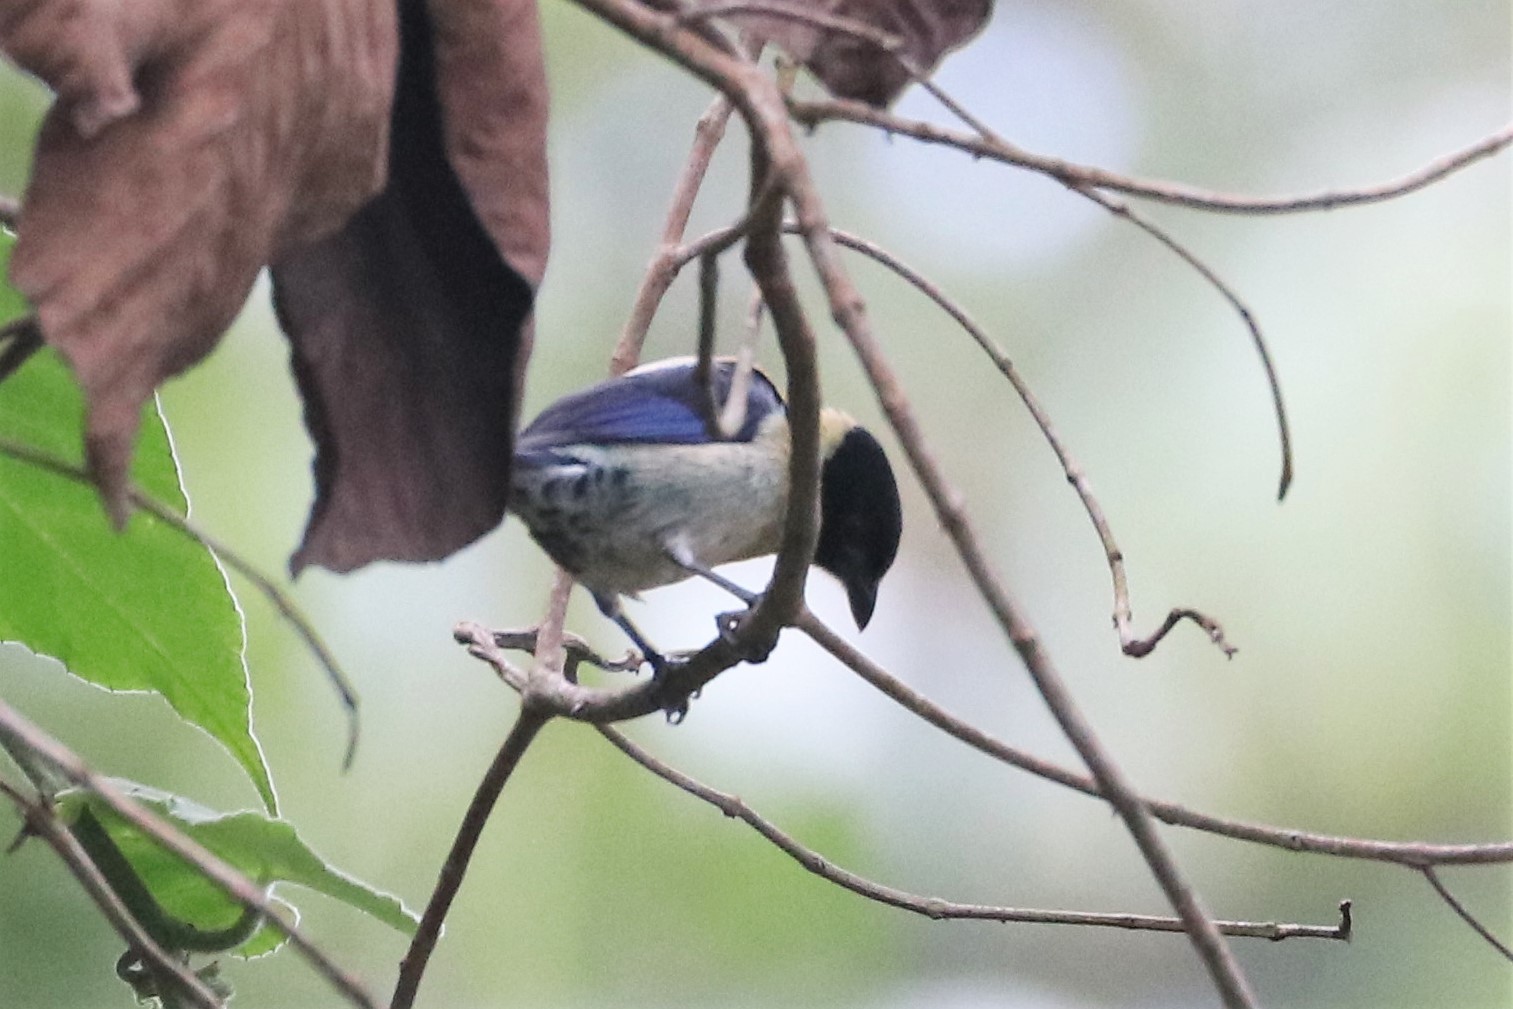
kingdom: Animalia
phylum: Chordata
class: Aves
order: Passeriformes
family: Thraupidae
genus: Stilpnia
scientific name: Stilpnia cyanoptera
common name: Black-headed tanager
